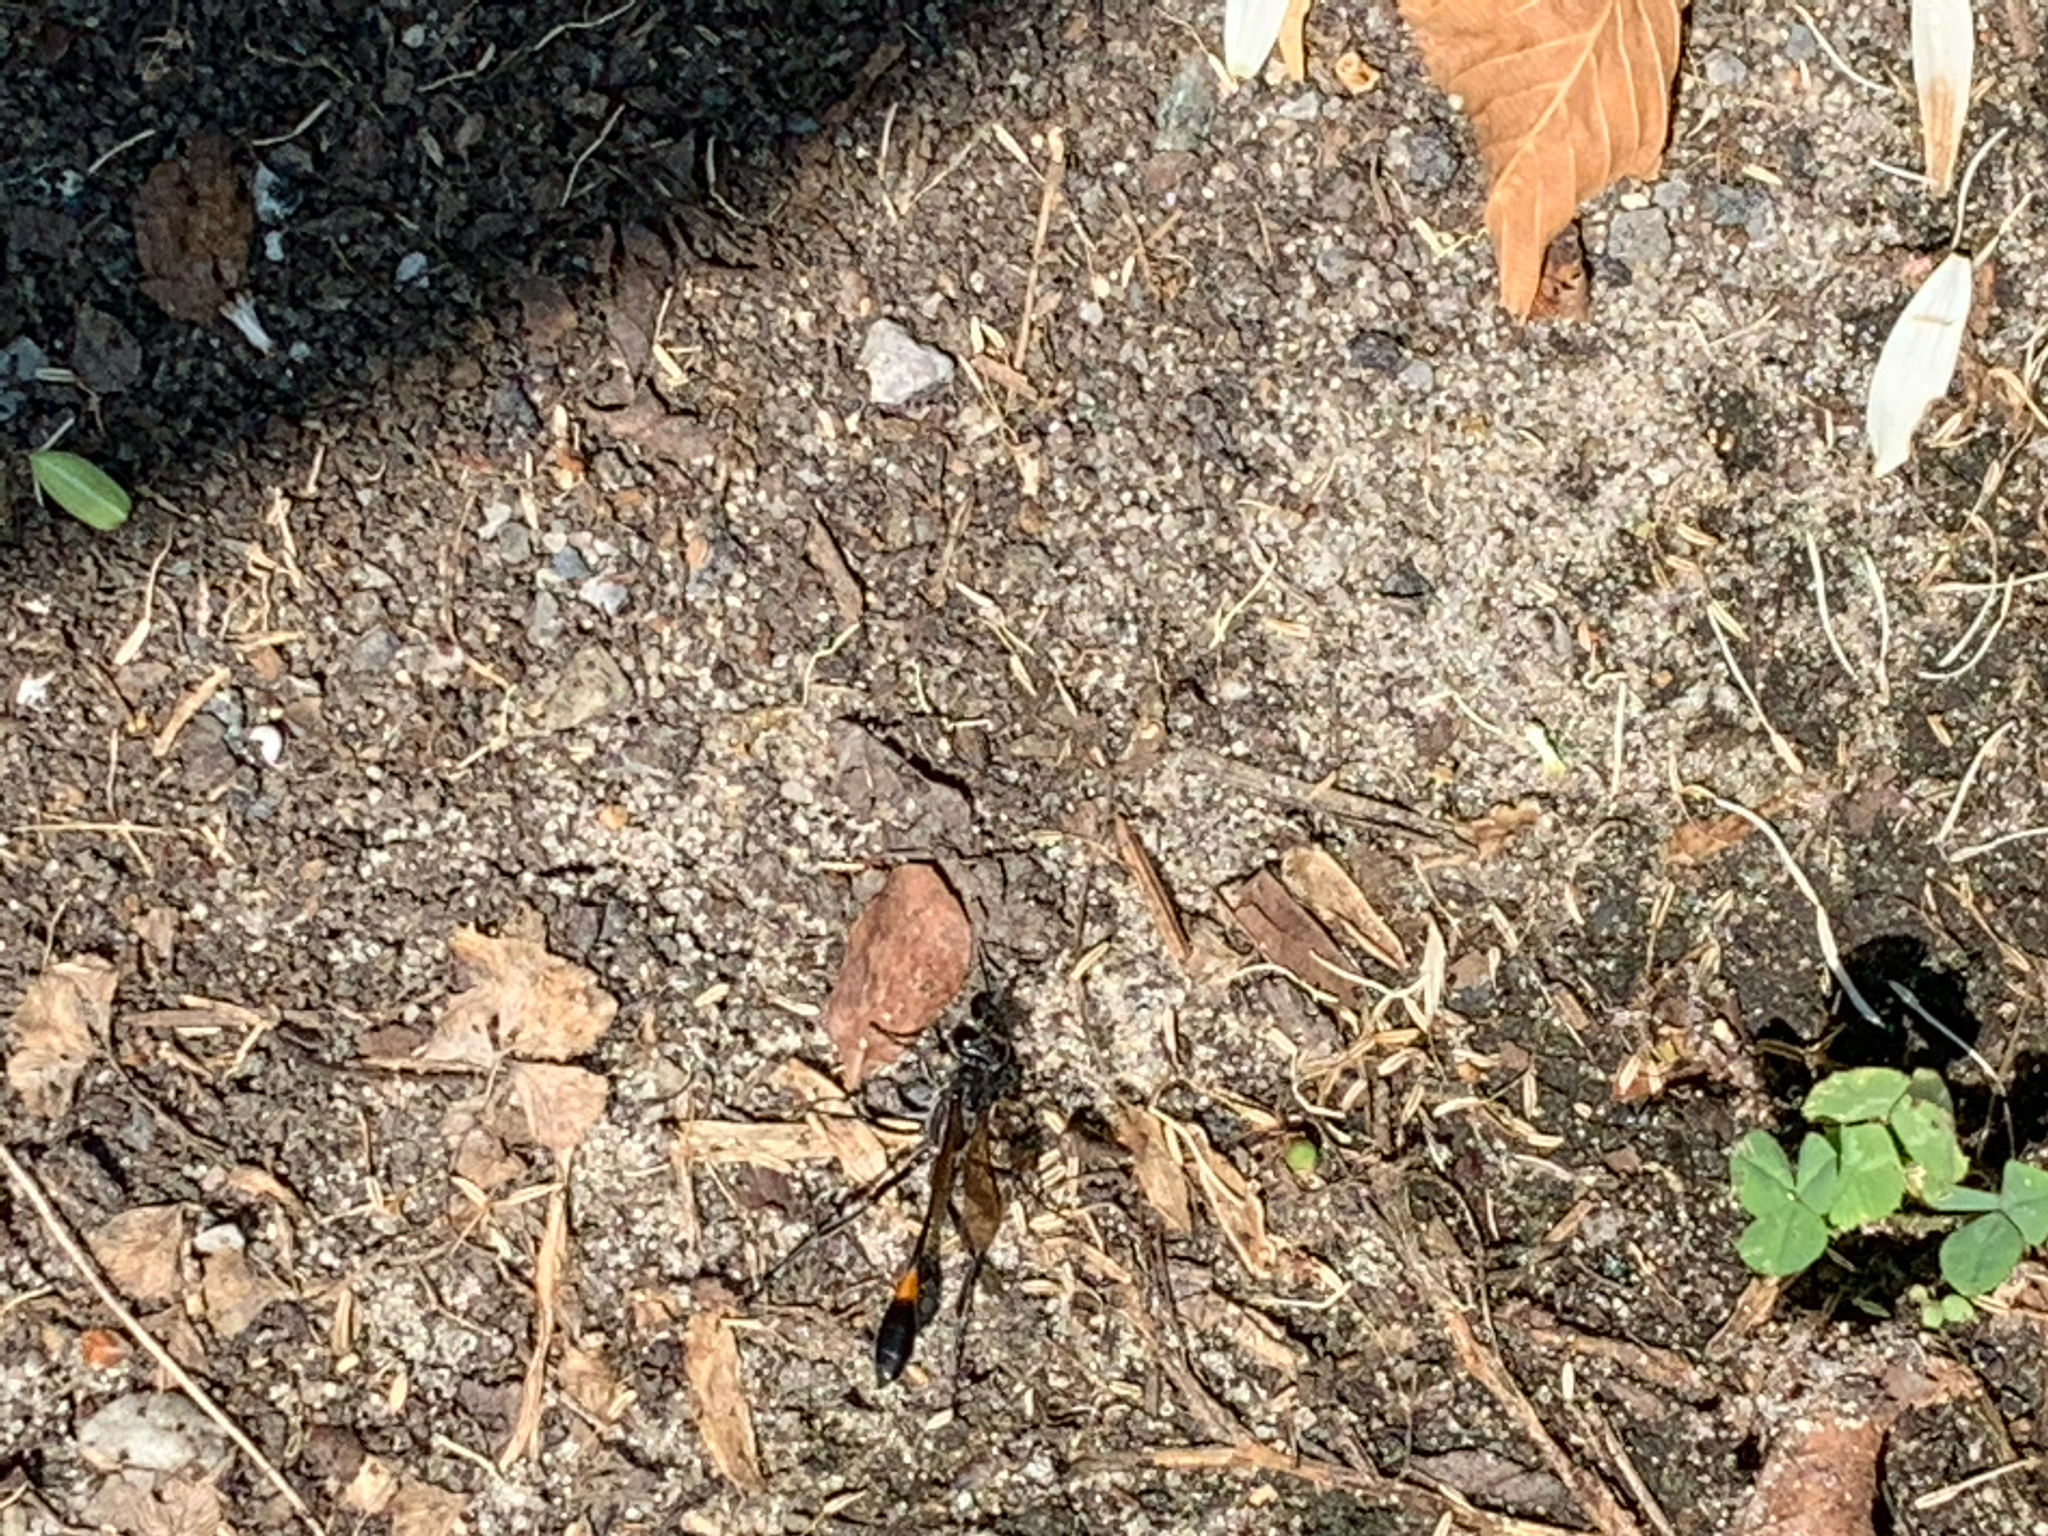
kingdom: Animalia
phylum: Arthropoda
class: Insecta
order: Hymenoptera
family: Sphecidae
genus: Ammophila
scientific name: Ammophila
